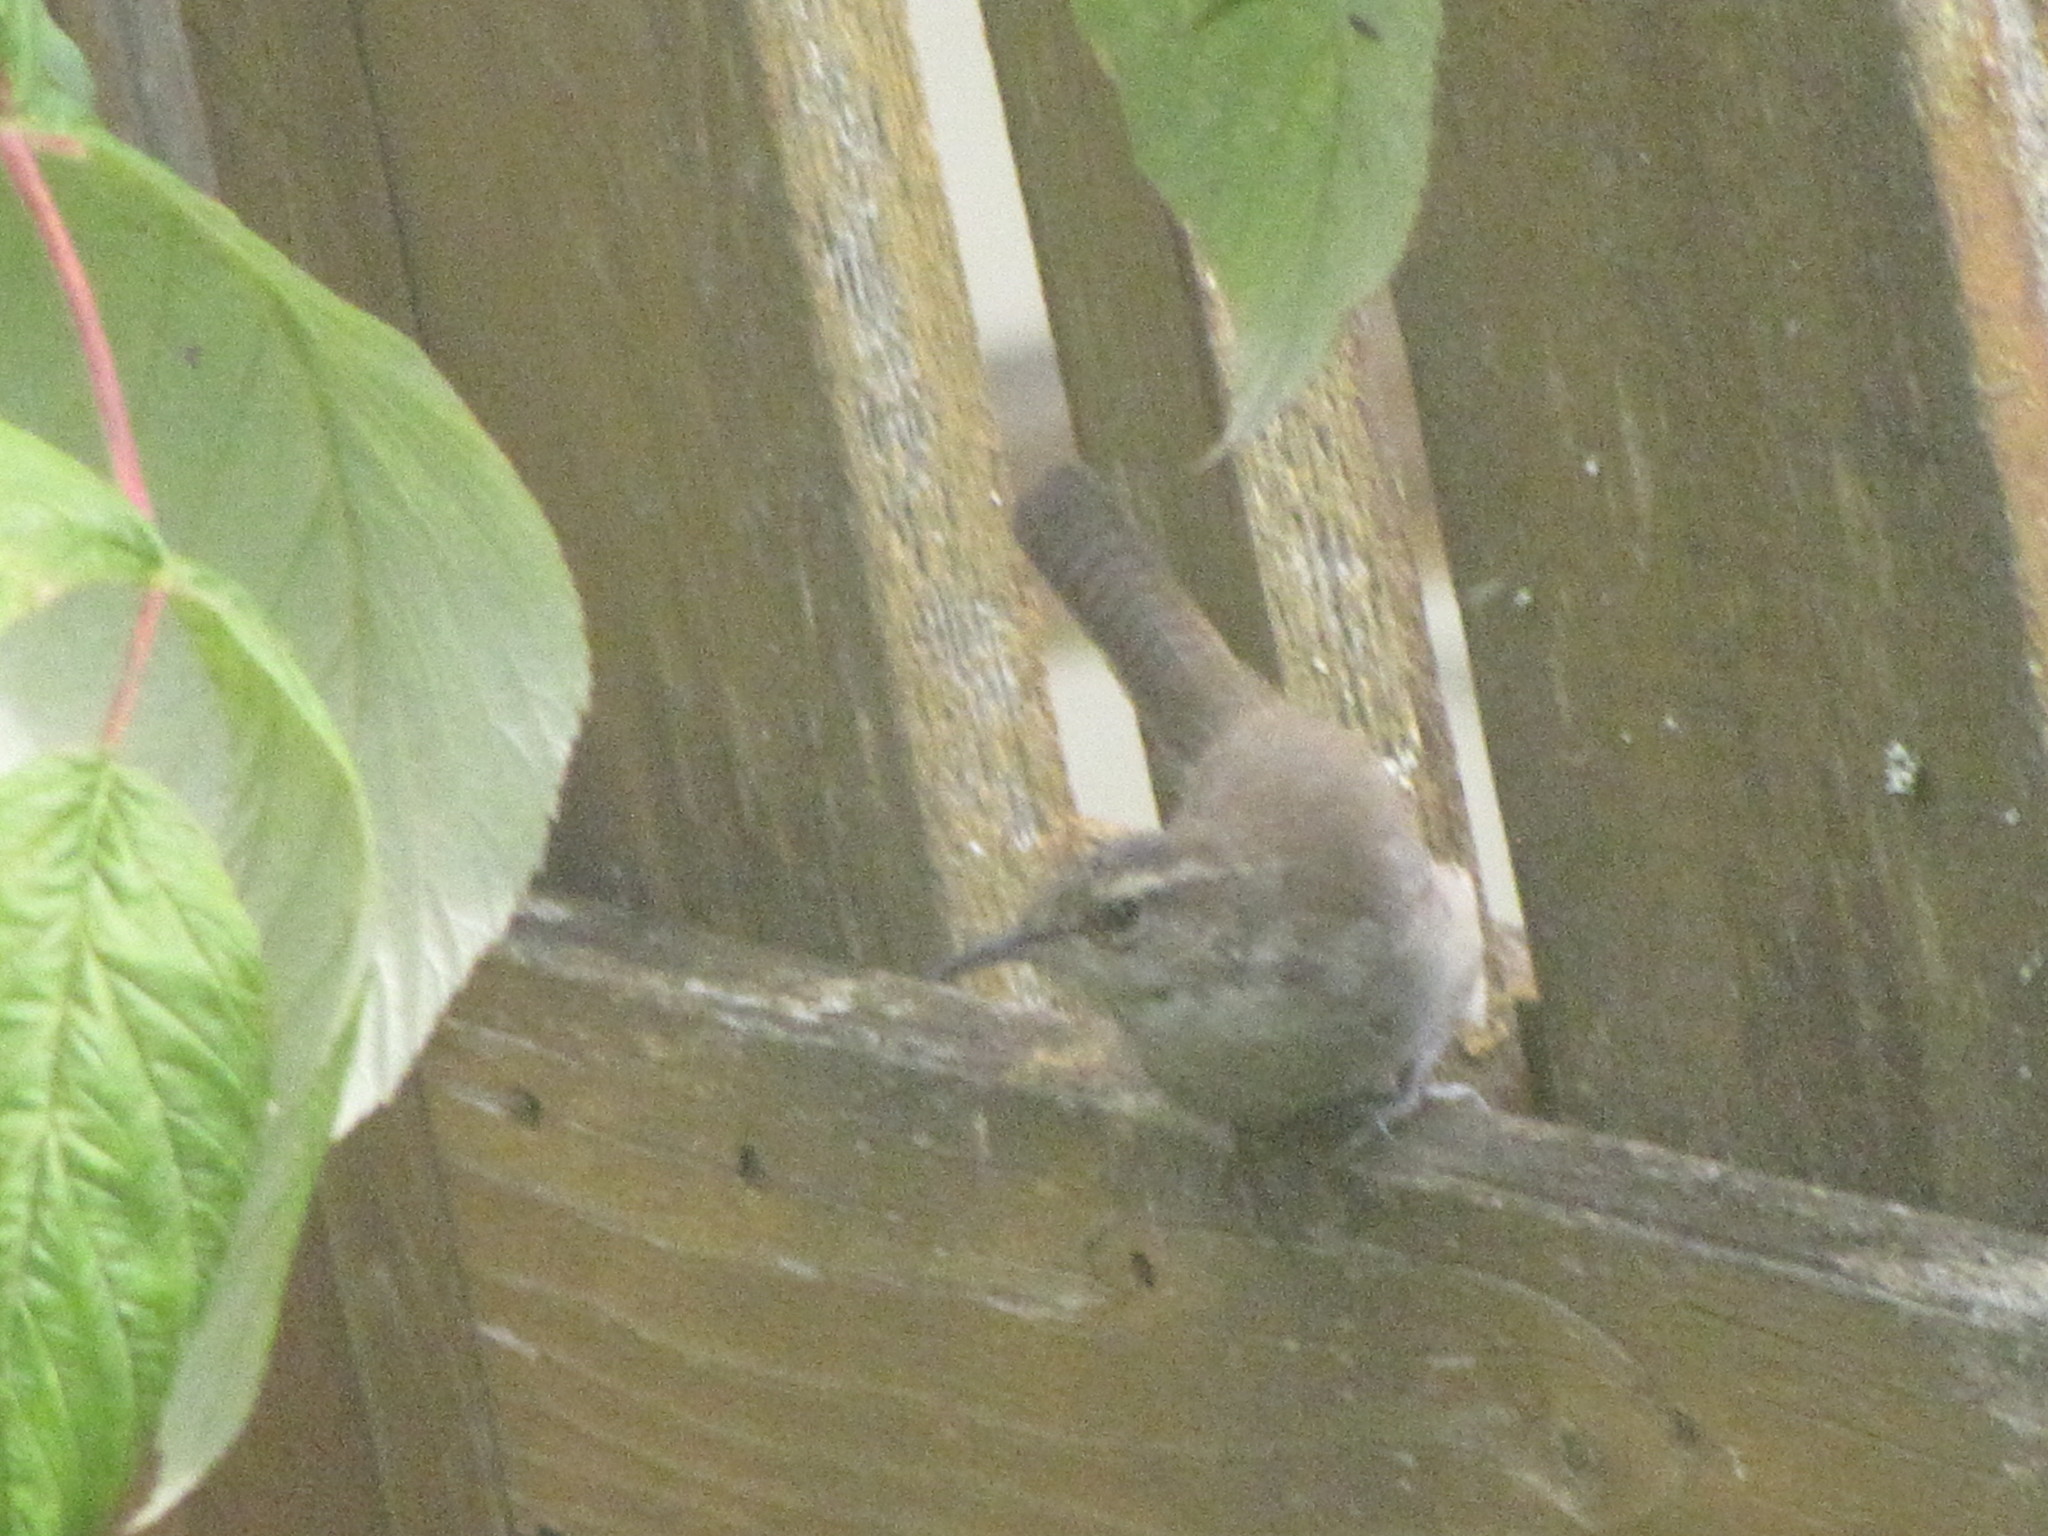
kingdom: Animalia
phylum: Chordata
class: Aves
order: Passeriformes
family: Troglodytidae
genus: Thryomanes
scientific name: Thryomanes bewickii
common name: Bewick's wren
